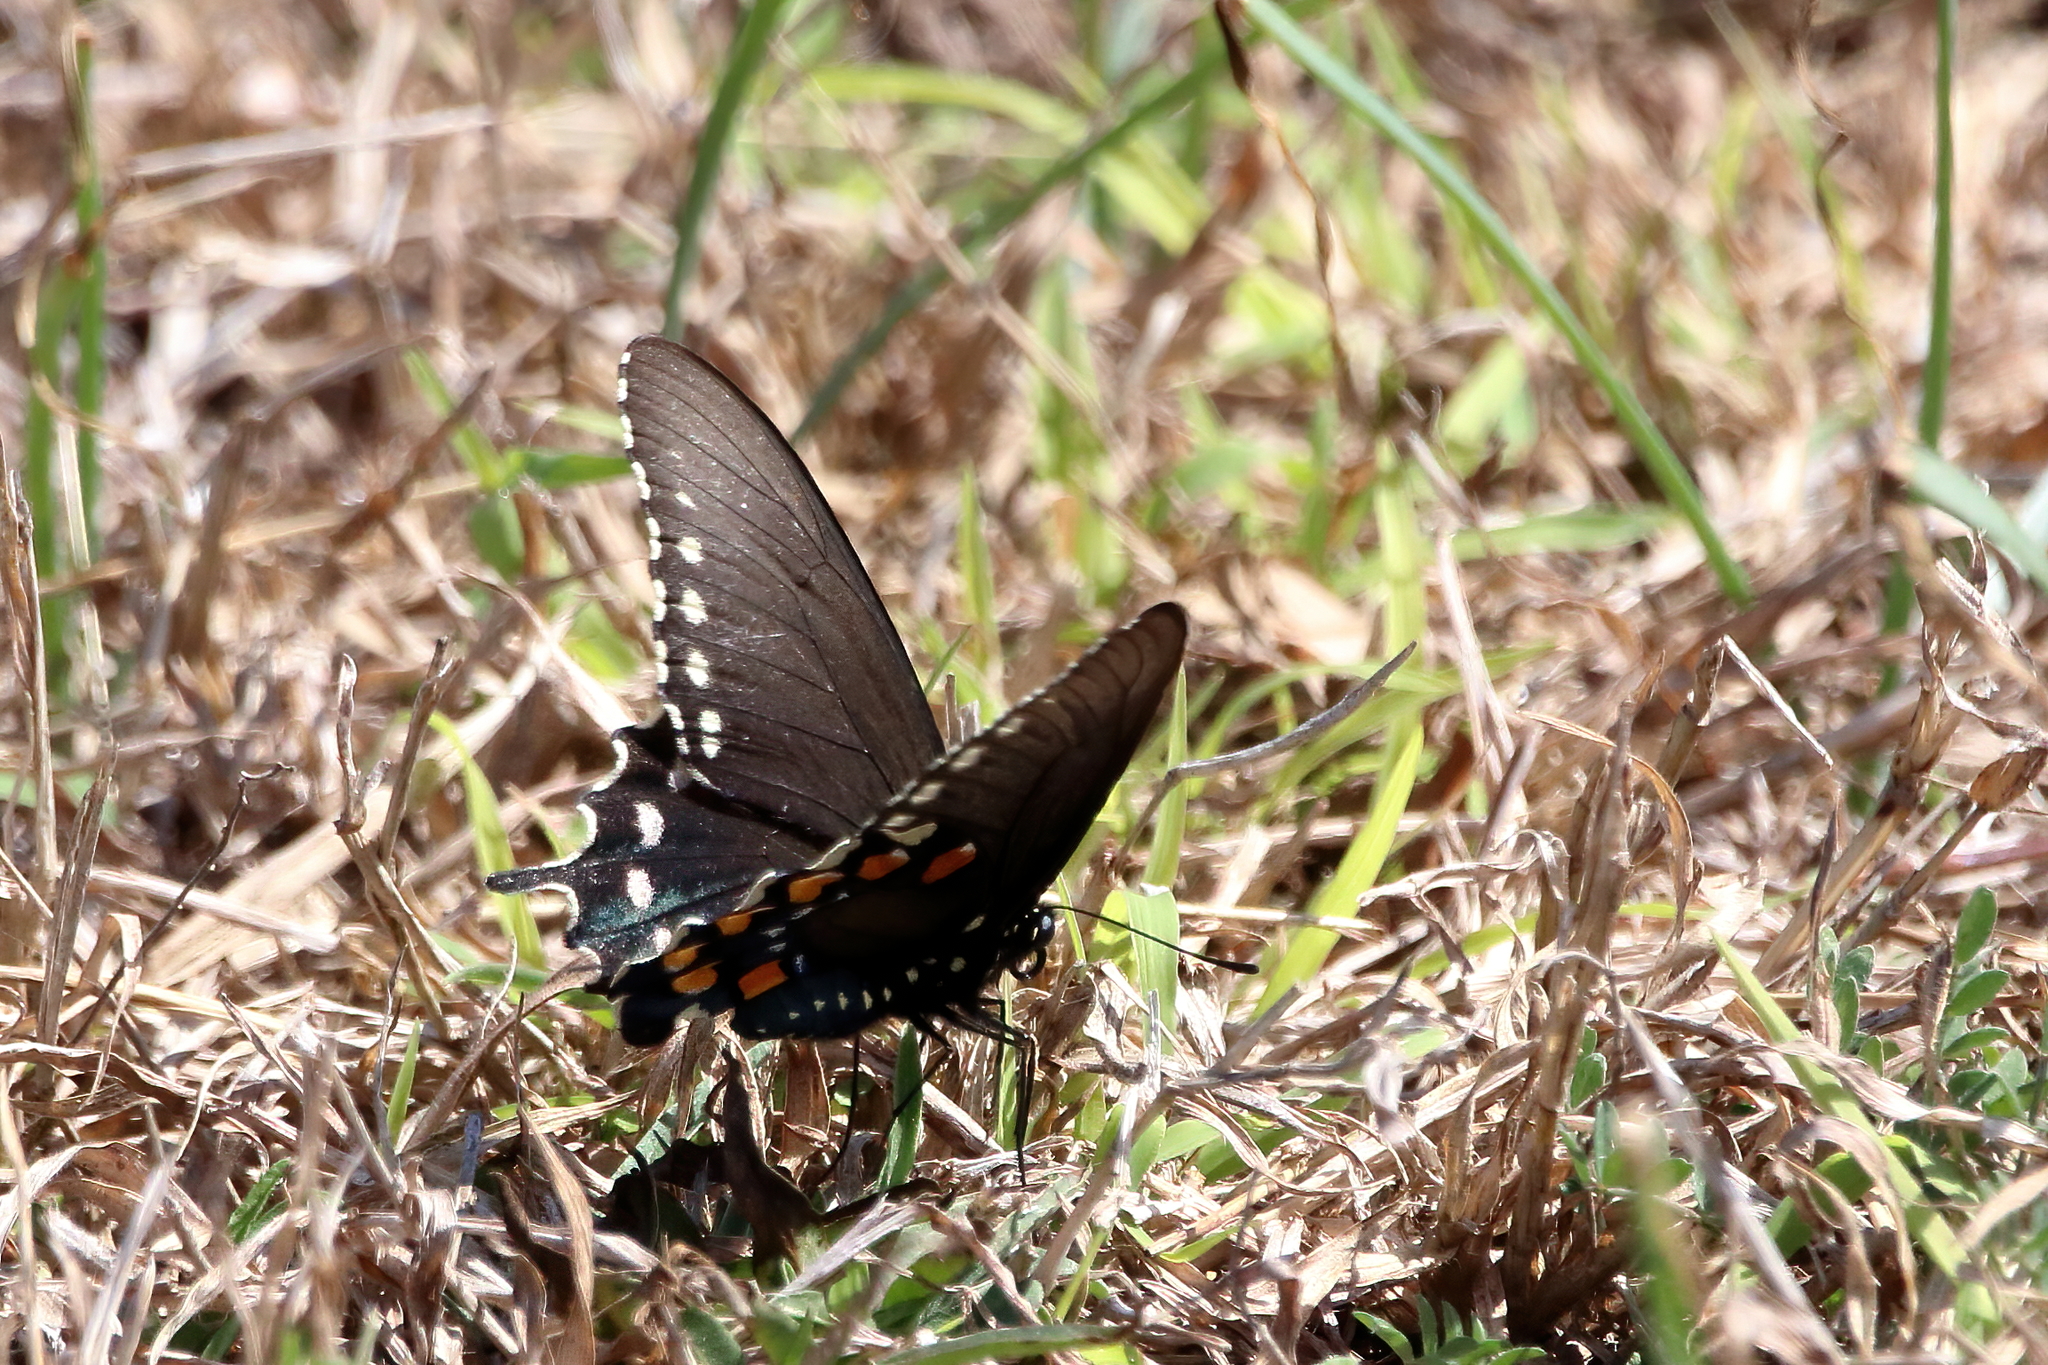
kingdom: Animalia
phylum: Arthropoda
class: Insecta
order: Lepidoptera
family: Papilionidae
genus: Battus
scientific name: Battus philenor
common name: Pipevine swallowtail
